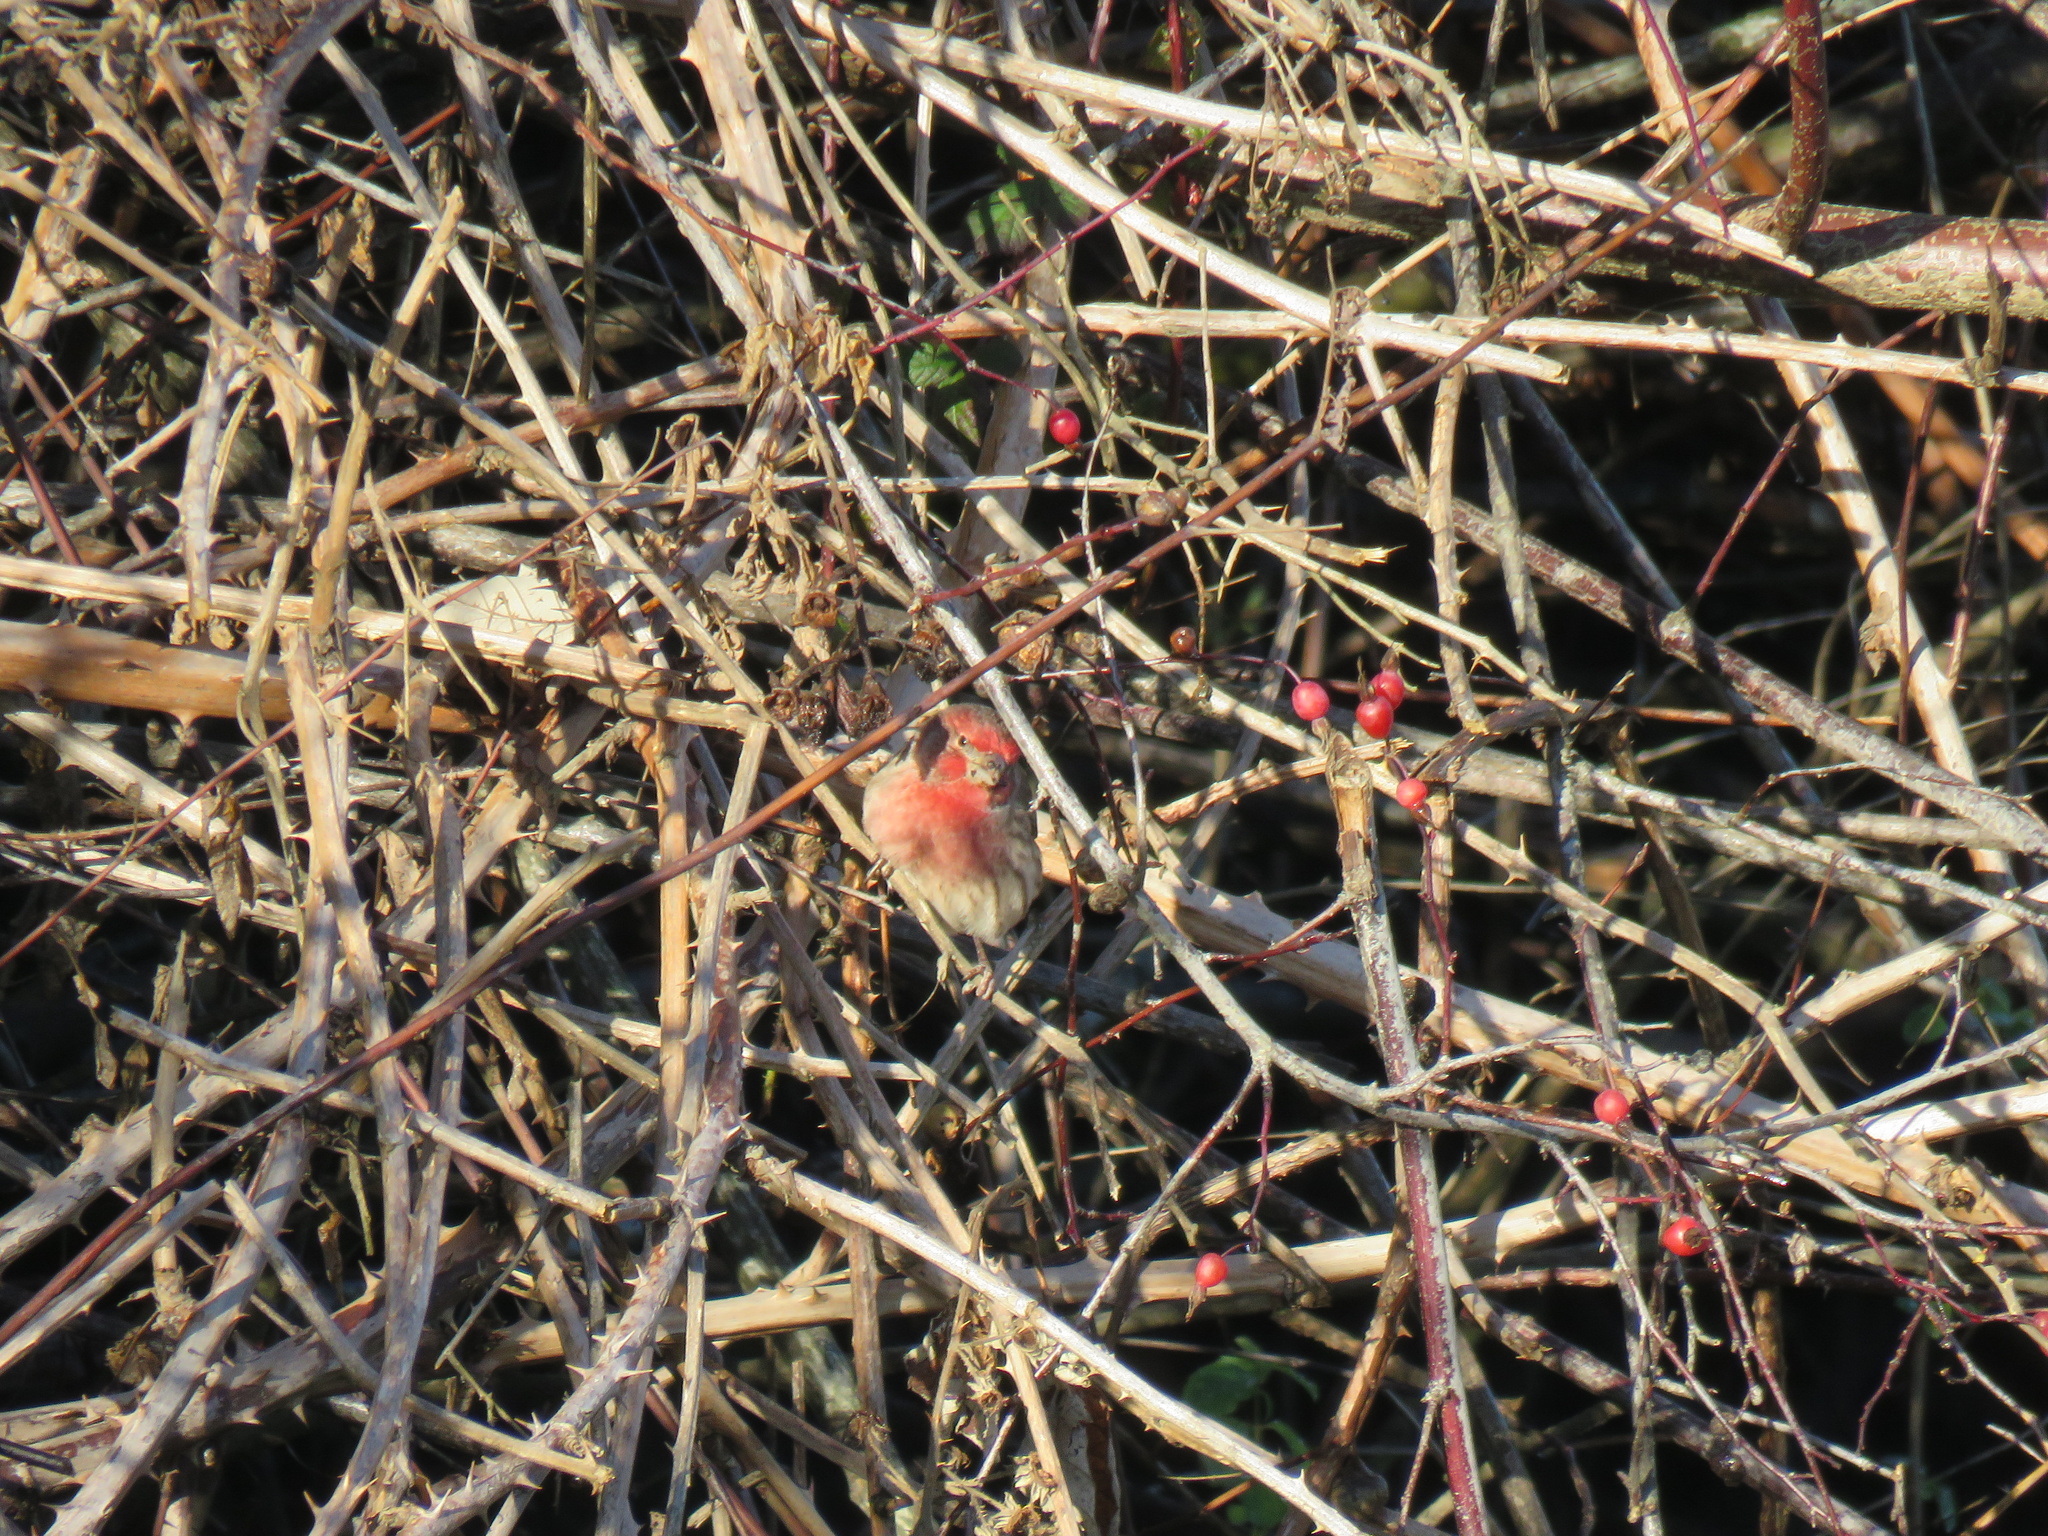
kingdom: Animalia
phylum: Chordata
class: Aves
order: Passeriformes
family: Fringillidae
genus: Haemorhous
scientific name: Haemorhous mexicanus
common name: House finch
